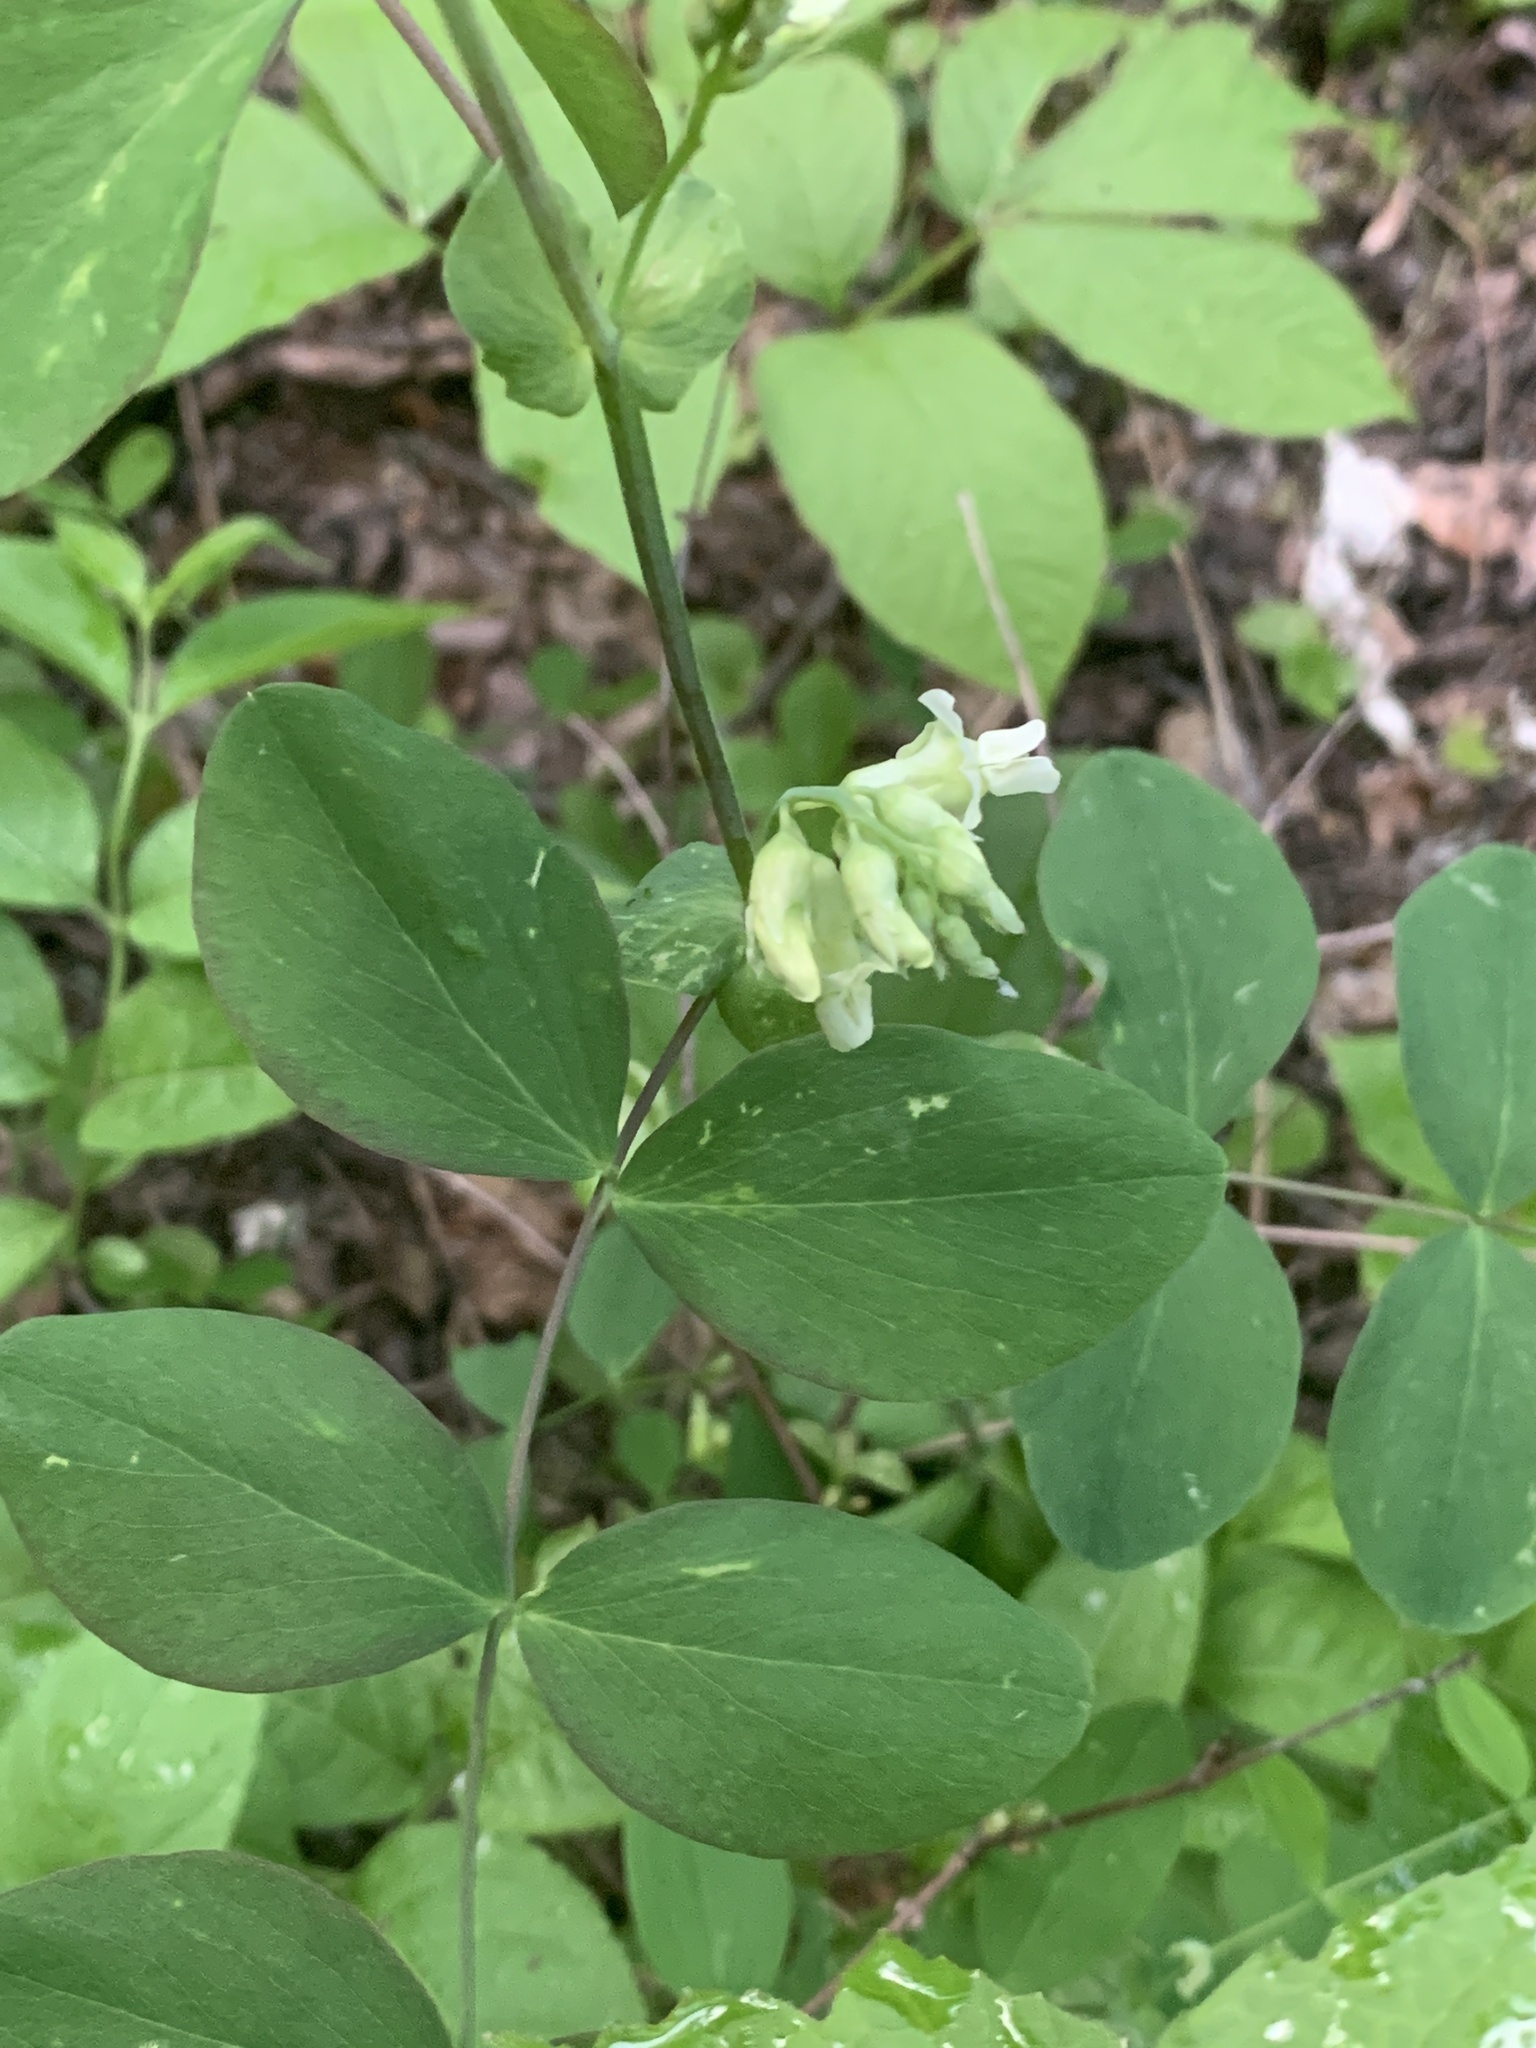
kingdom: Plantae
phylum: Tracheophyta
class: Magnoliopsida
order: Fabales
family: Fabaceae
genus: Lathyrus
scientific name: Lathyrus ochroleucus
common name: Pale vetchling
